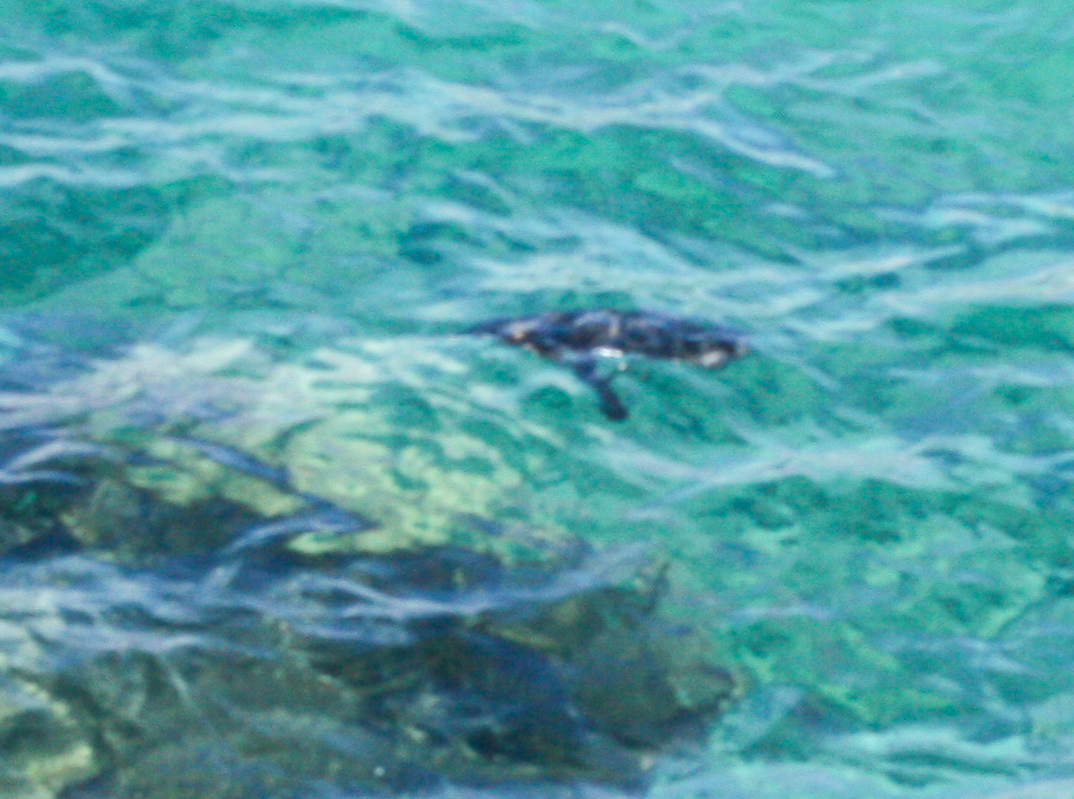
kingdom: Animalia
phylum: Chordata
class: Aves
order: Sphenisciformes
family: Spheniscidae
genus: Spheniscus
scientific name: Spheniscus mendiculus
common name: Galapagos penguin
